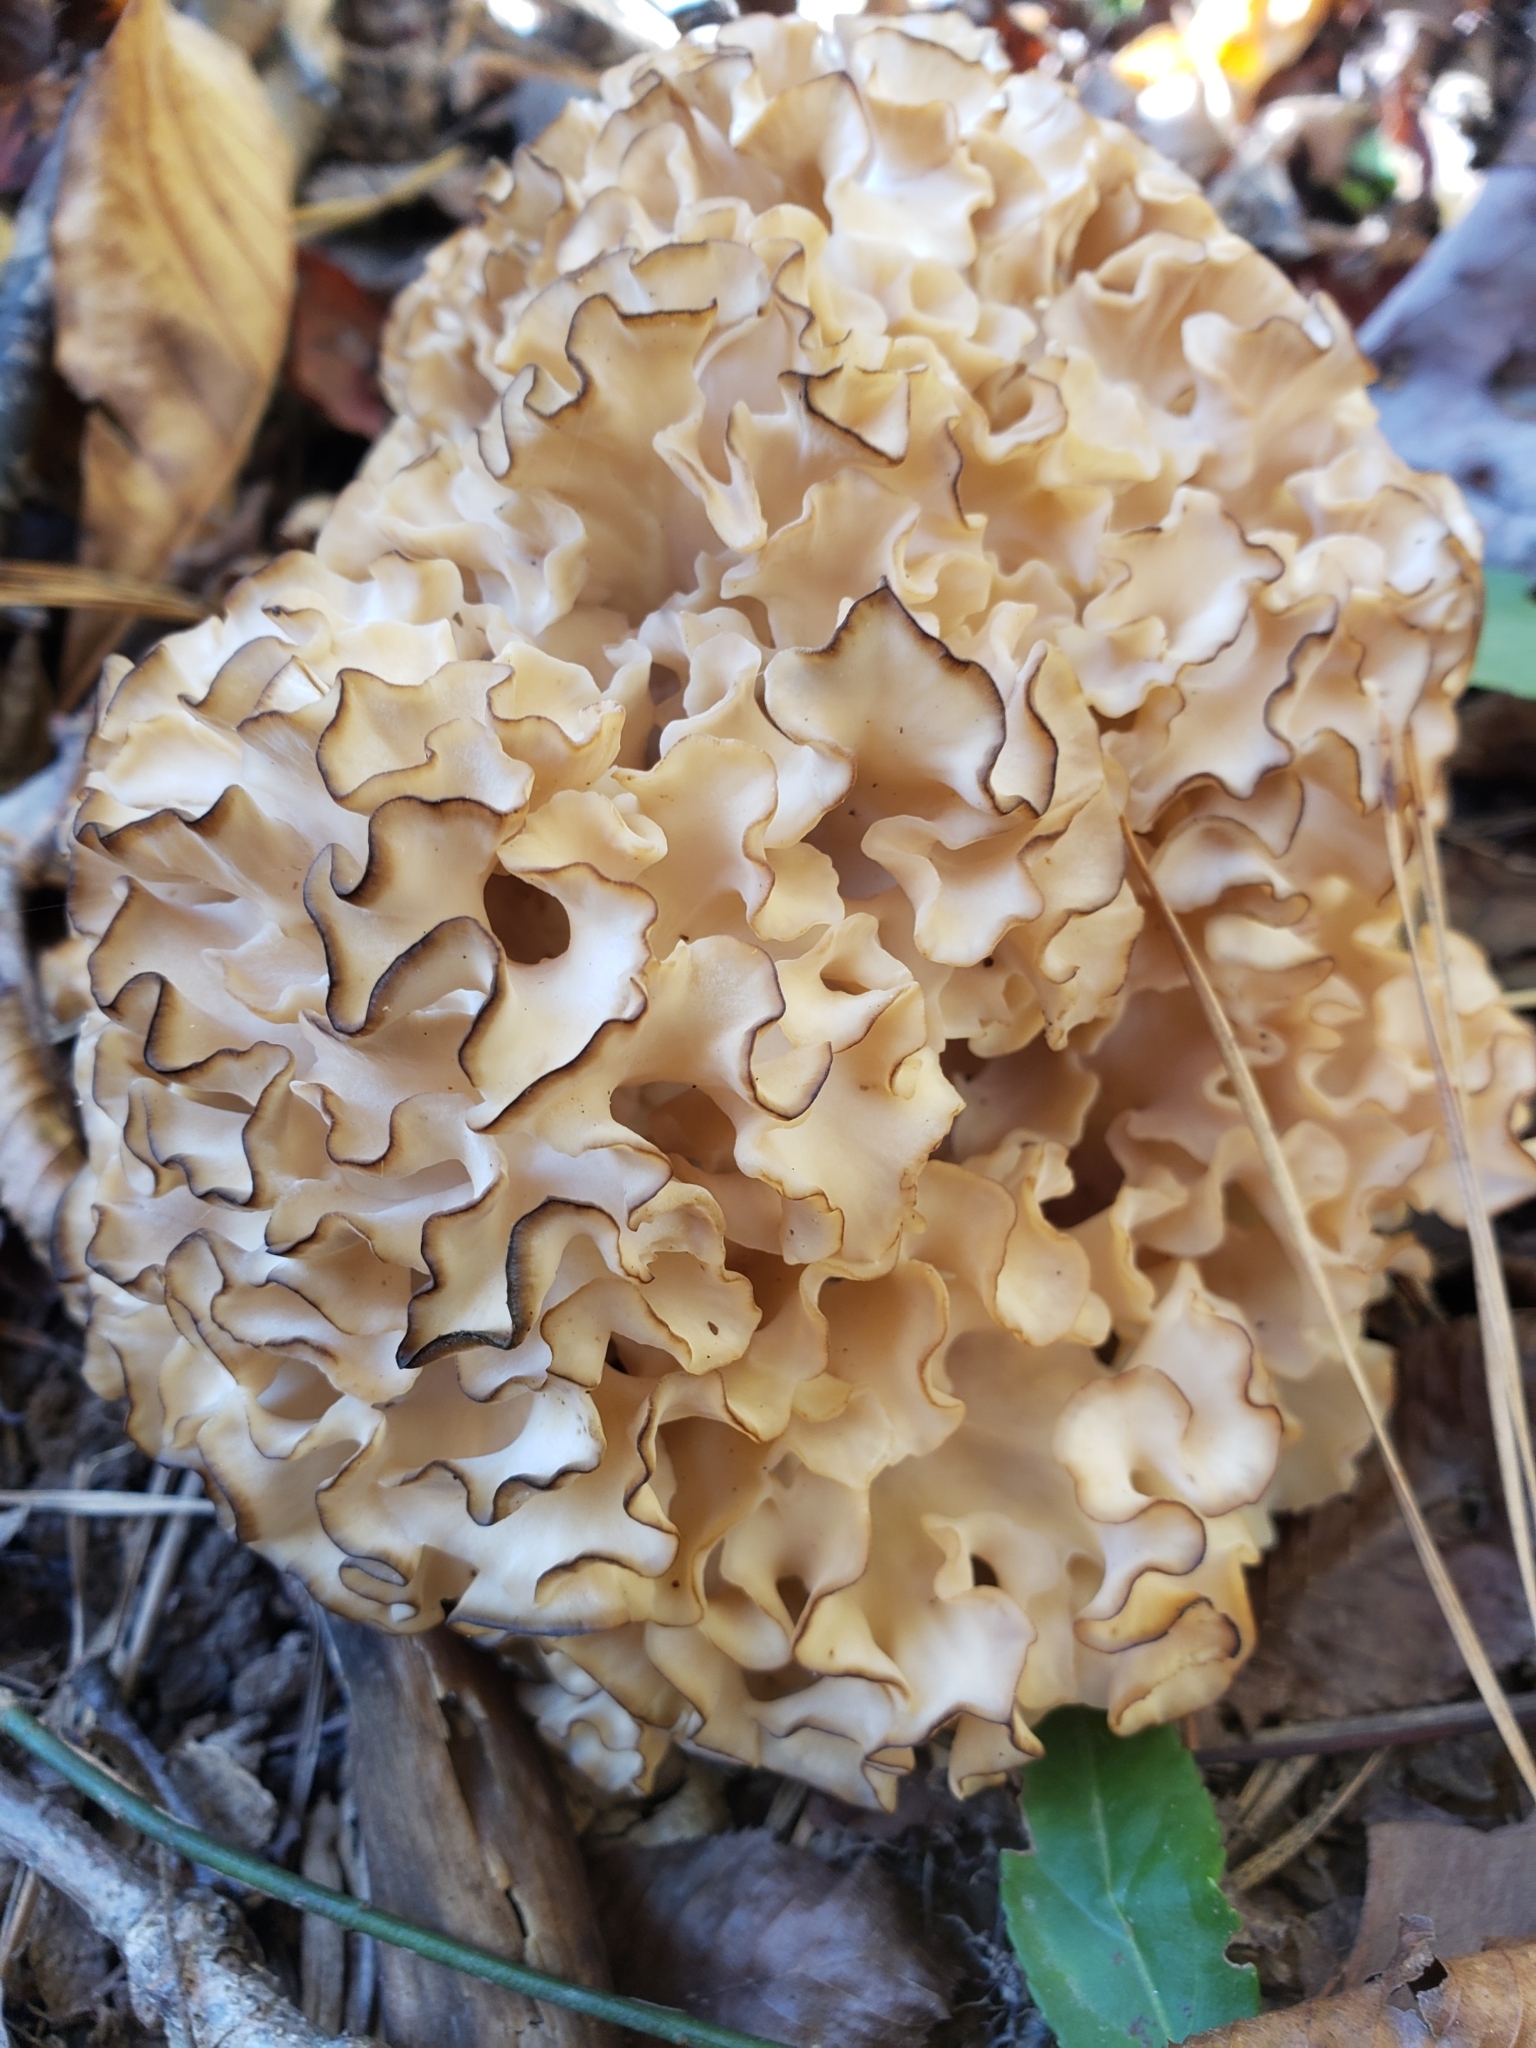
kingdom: Fungi
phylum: Basidiomycota
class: Agaricomycetes
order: Polyporales
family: Sparassidaceae
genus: Sparassis
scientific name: Sparassis americana
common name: American cauliflower mushroom
